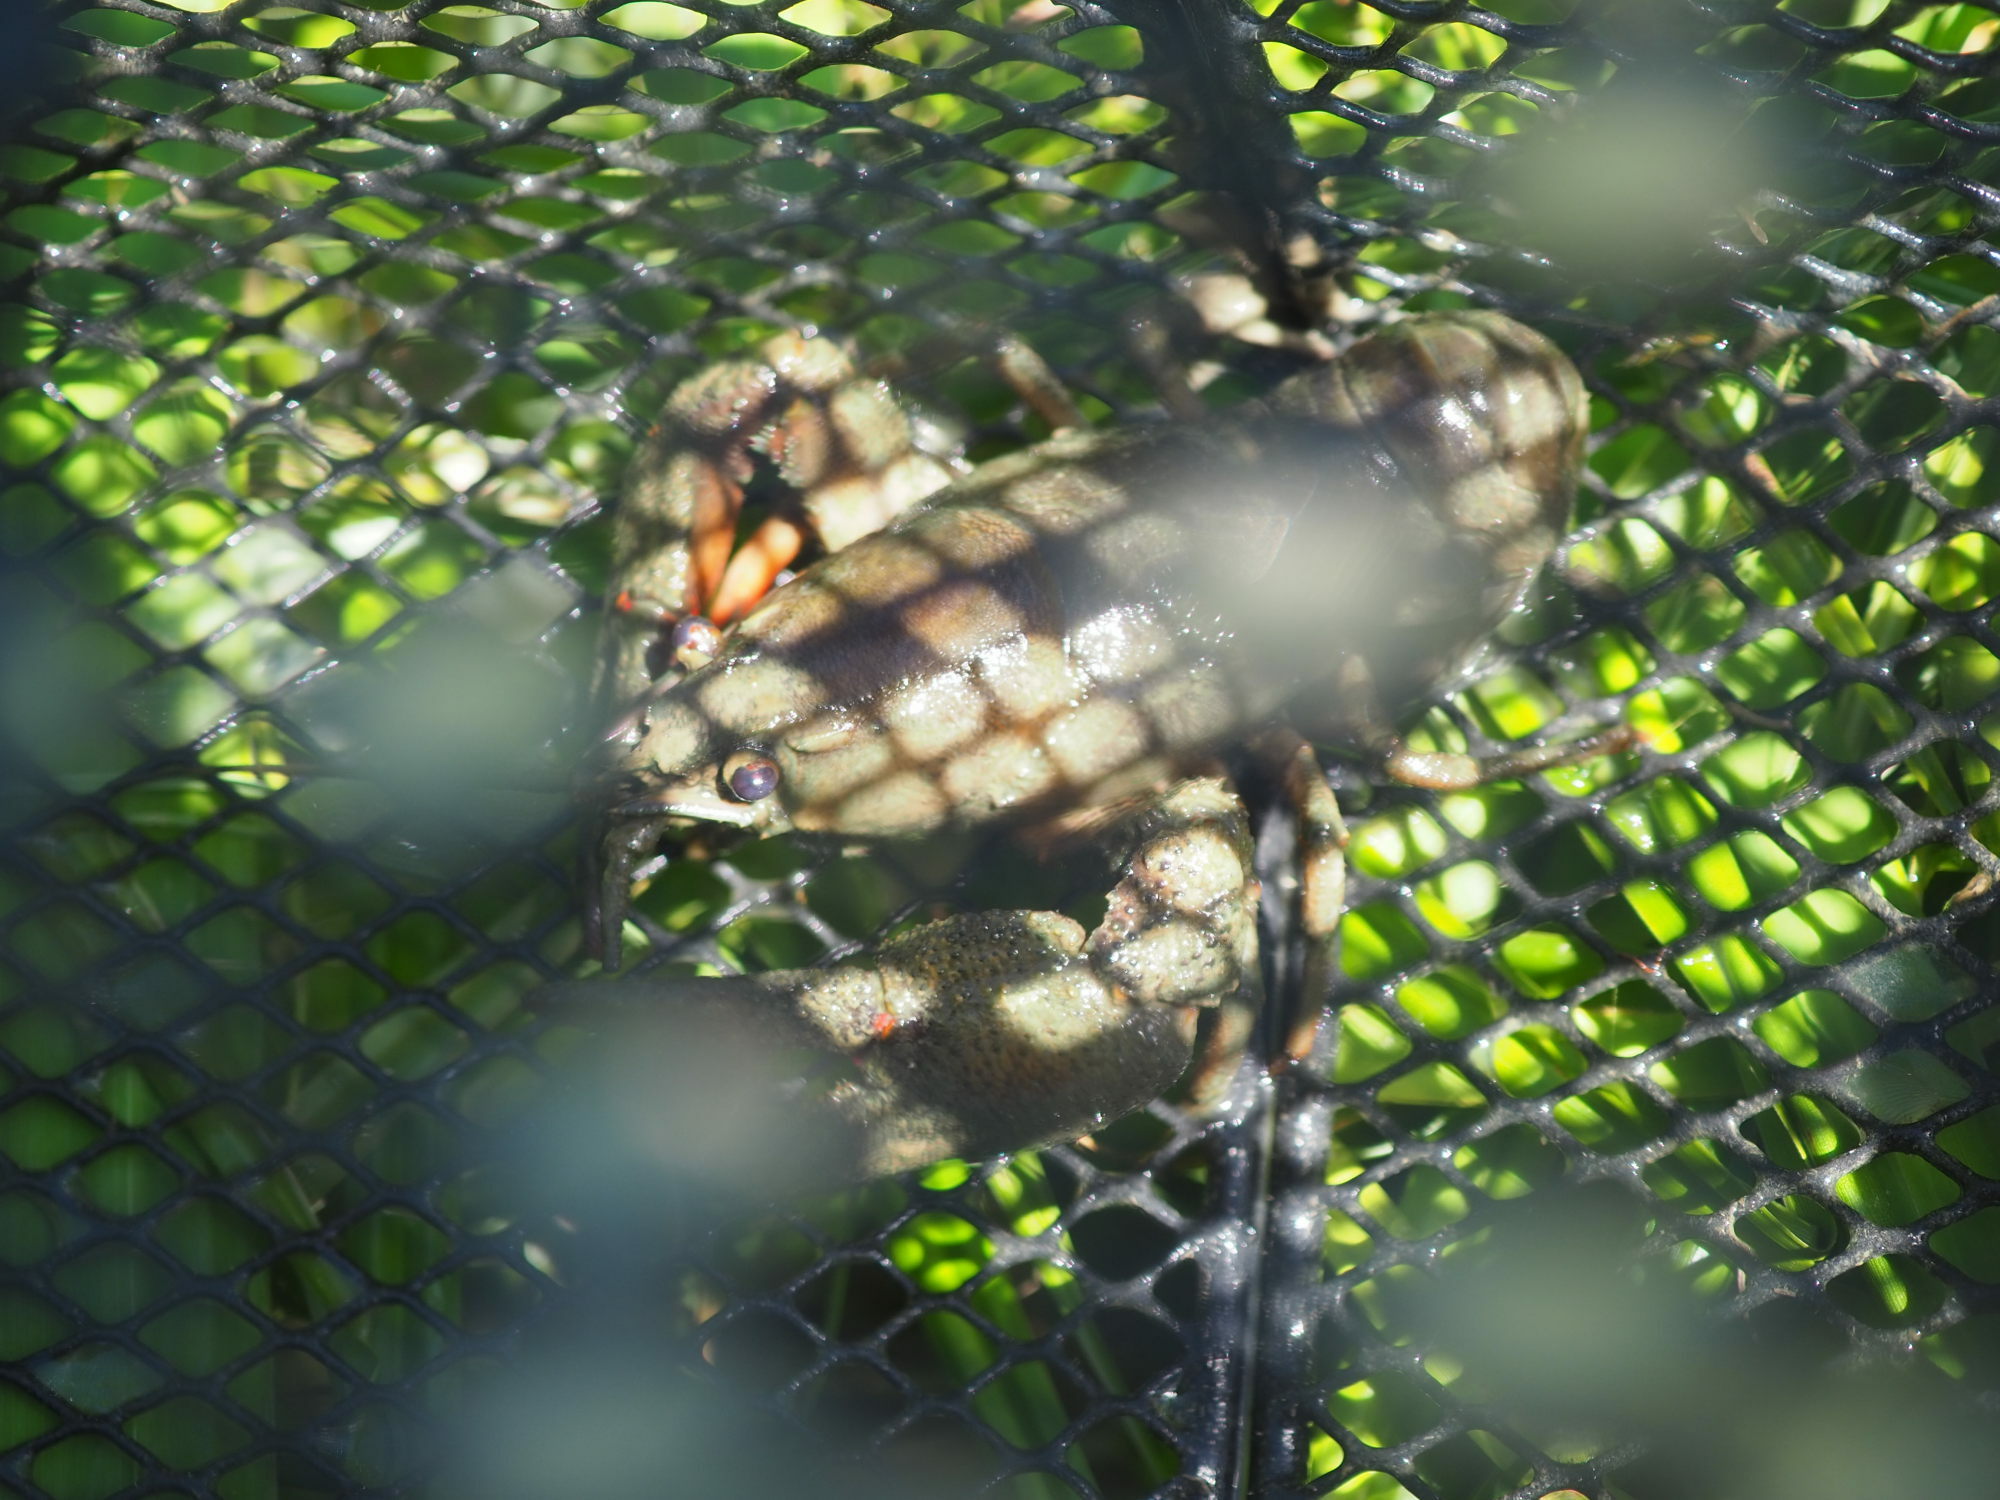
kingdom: Animalia
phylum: Arthropoda
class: Malacostraca
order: Decapoda
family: Astacidae
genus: Astacus
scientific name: Astacus astacus
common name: Noble crayfish
